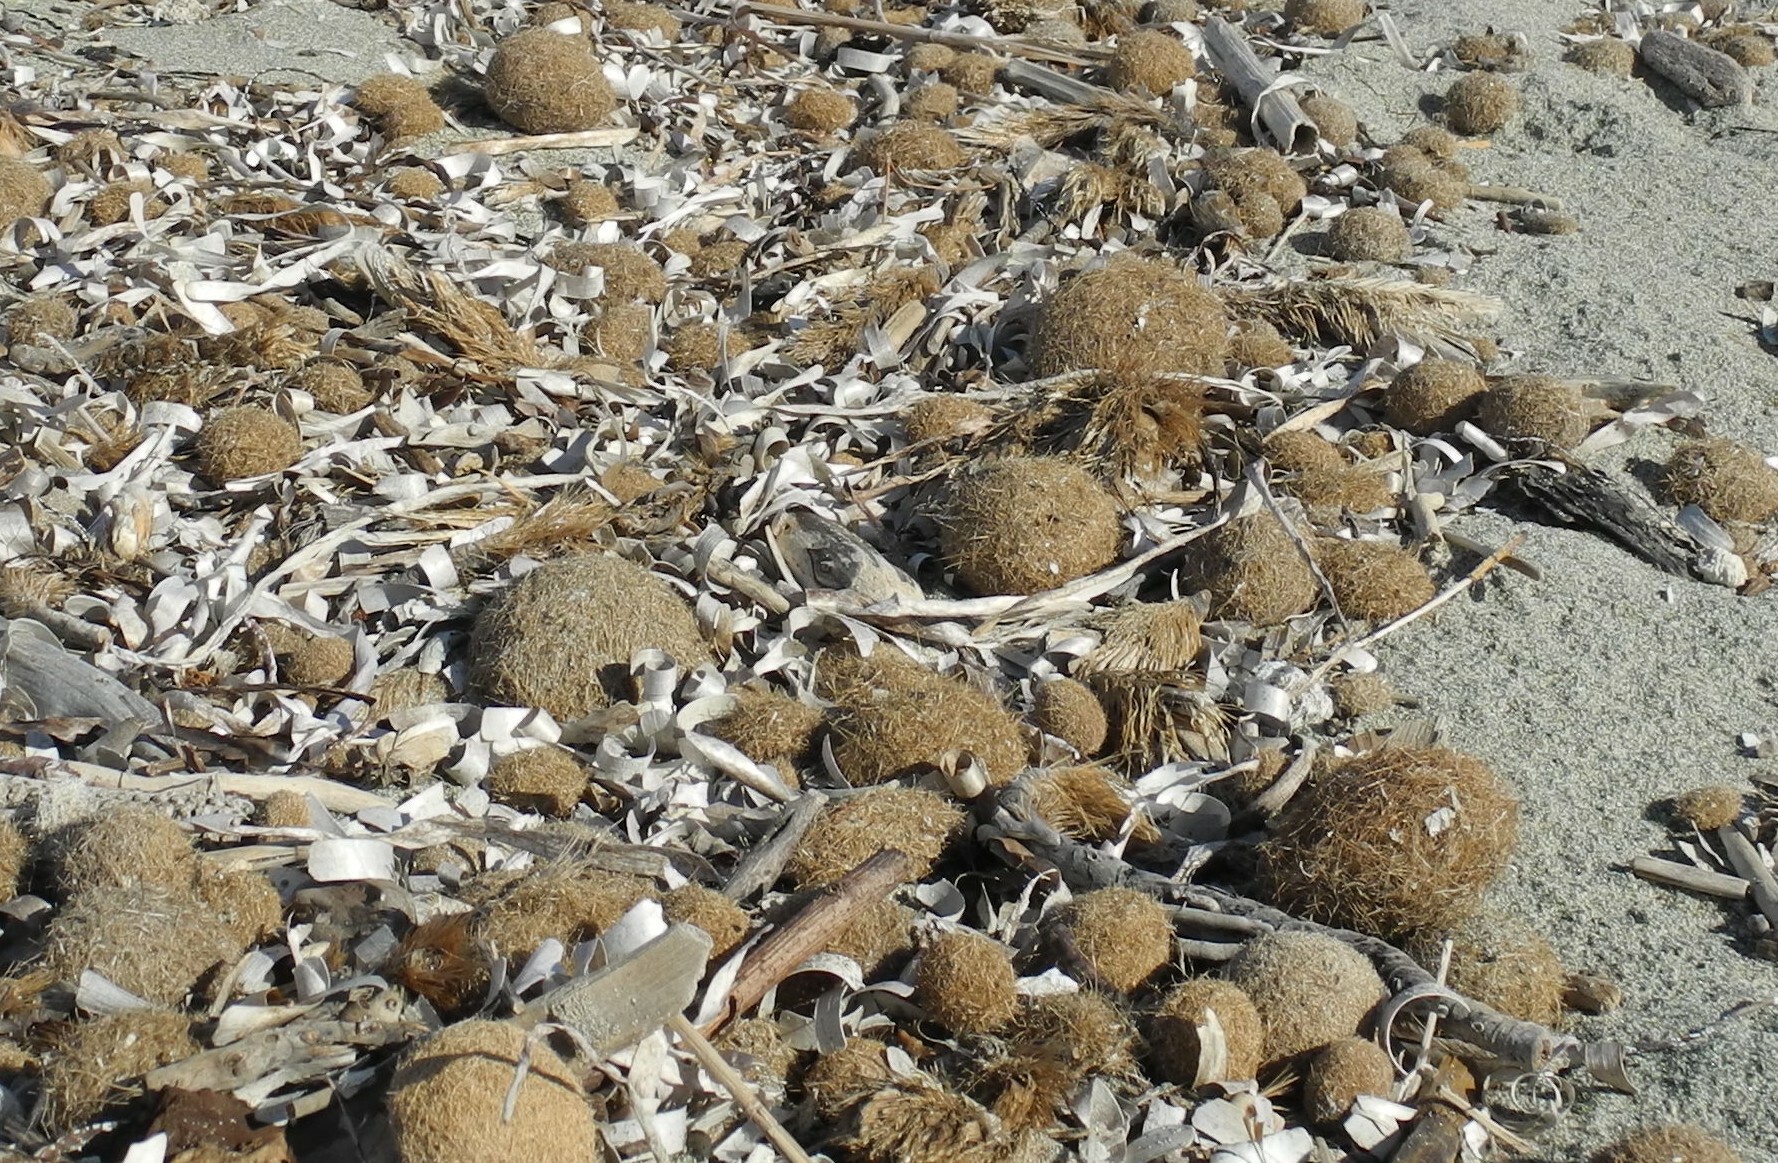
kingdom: Plantae
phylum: Tracheophyta
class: Liliopsida
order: Alismatales
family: Posidoniaceae
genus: Posidonia
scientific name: Posidonia oceanica
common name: Mediterranean tapeweed
